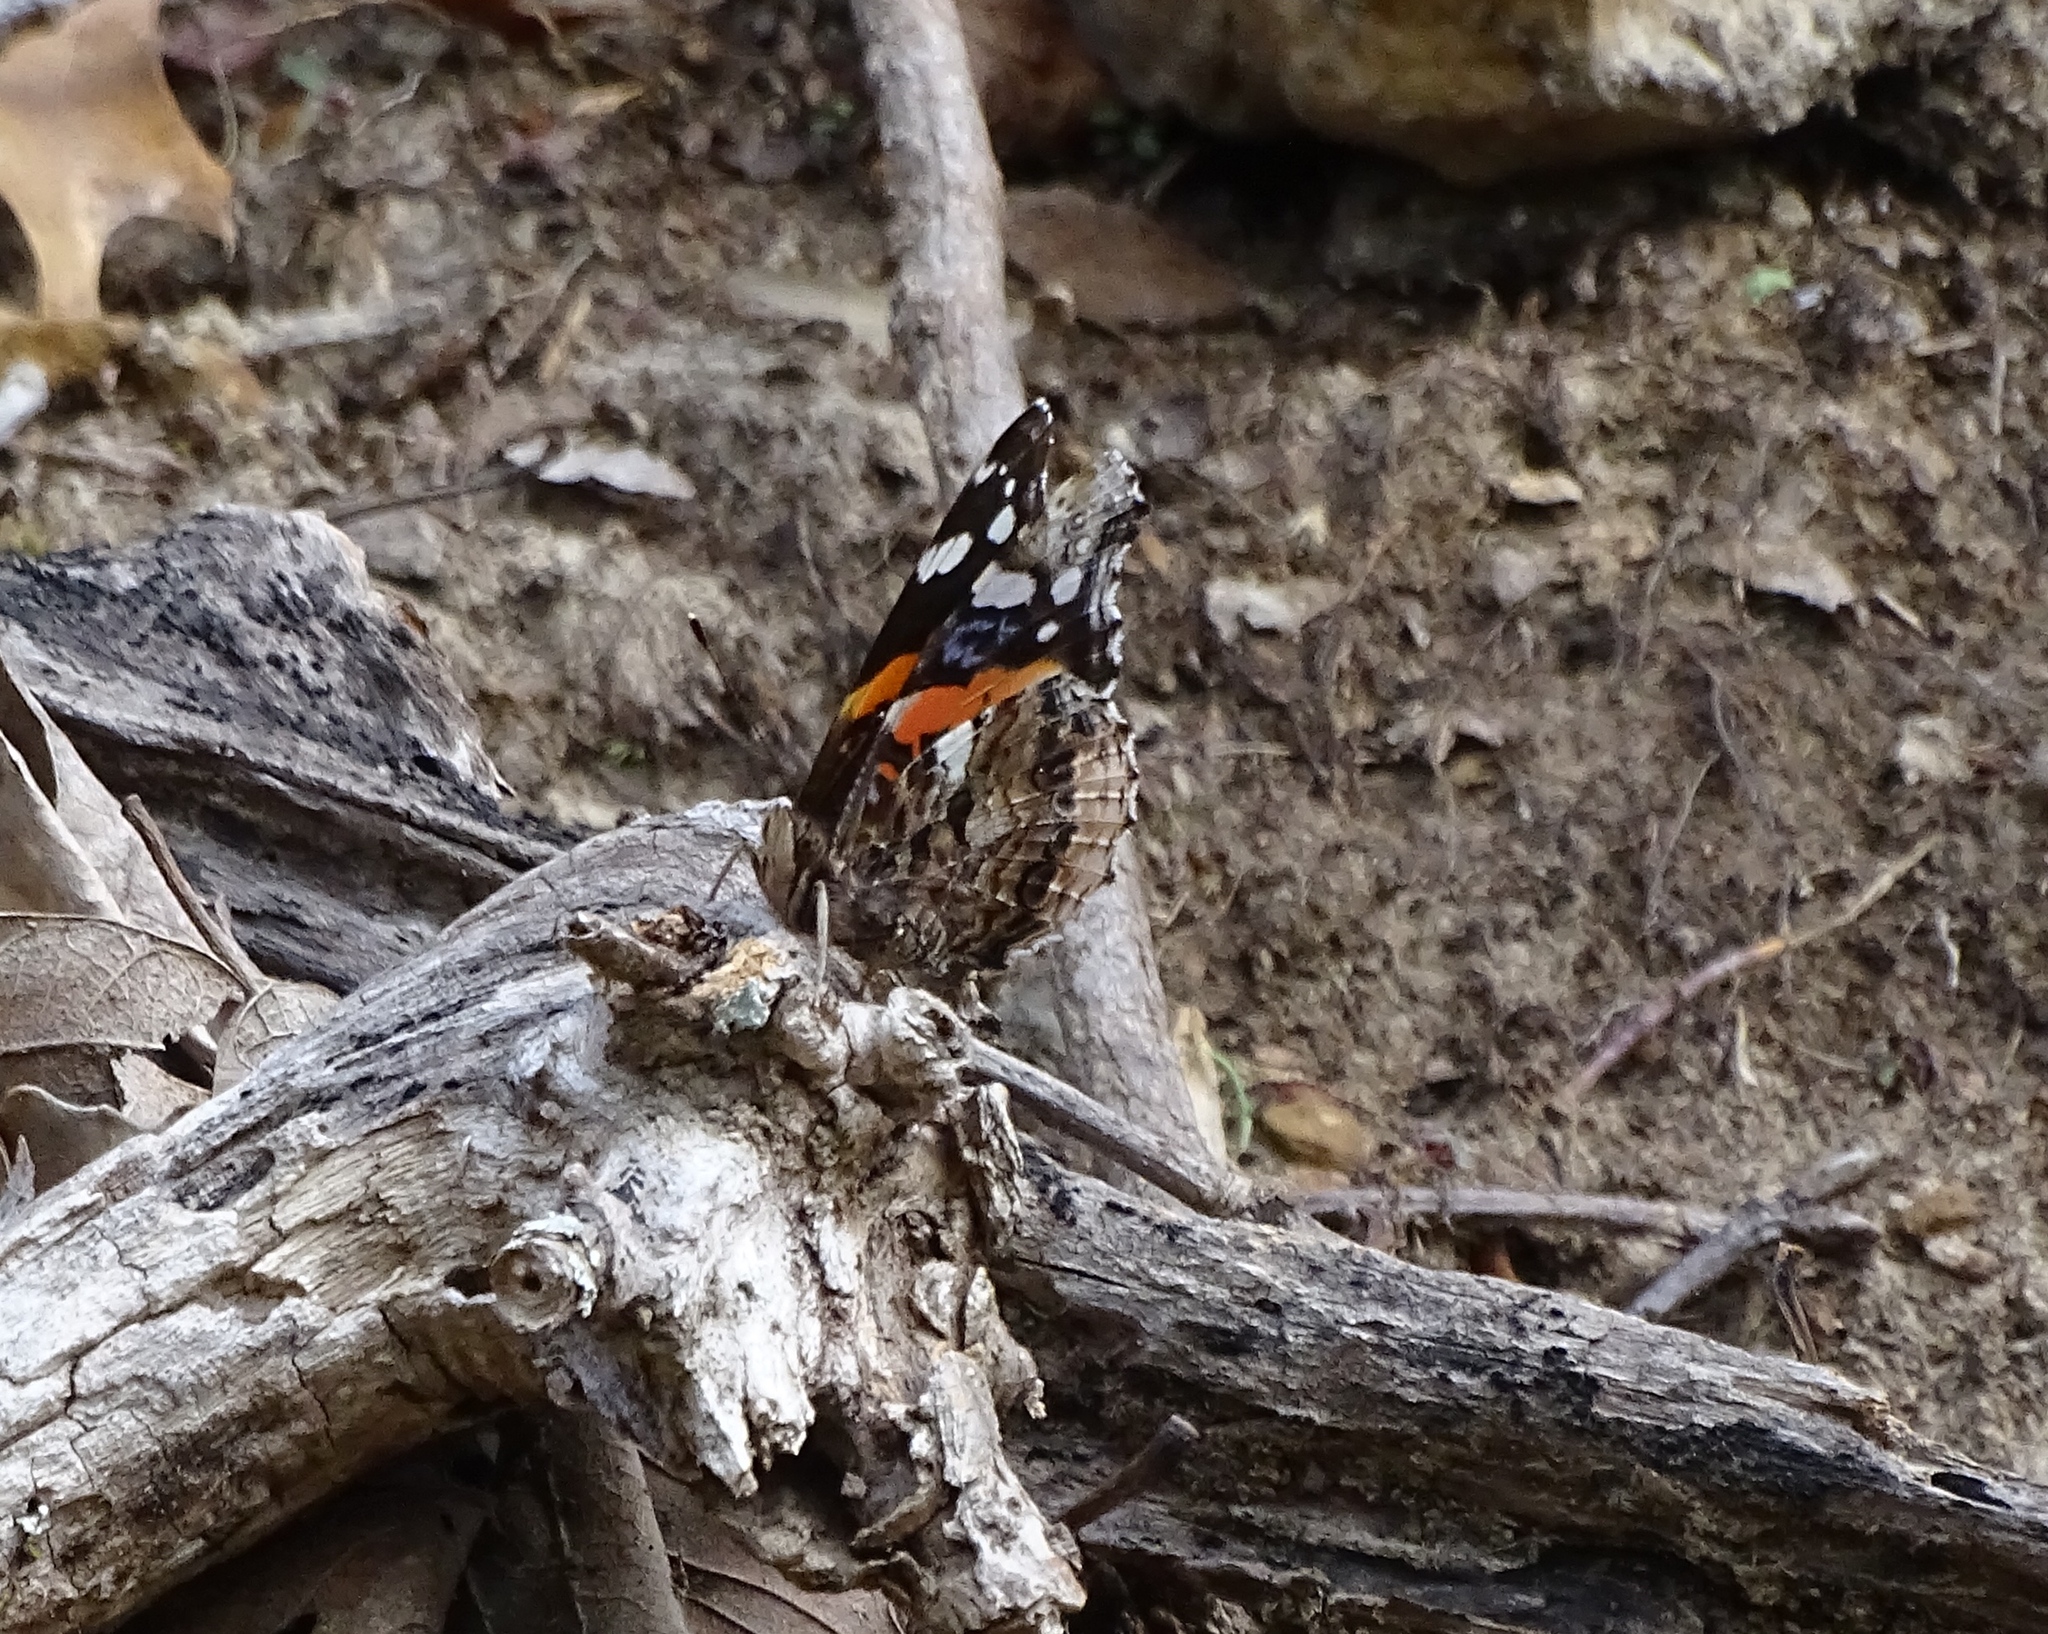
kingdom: Animalia
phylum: Arthropoda
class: Insecta
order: Lepidoptera
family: Nymphalidae
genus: Vanessa
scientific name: Vanessa atalanta
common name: Red admiral
